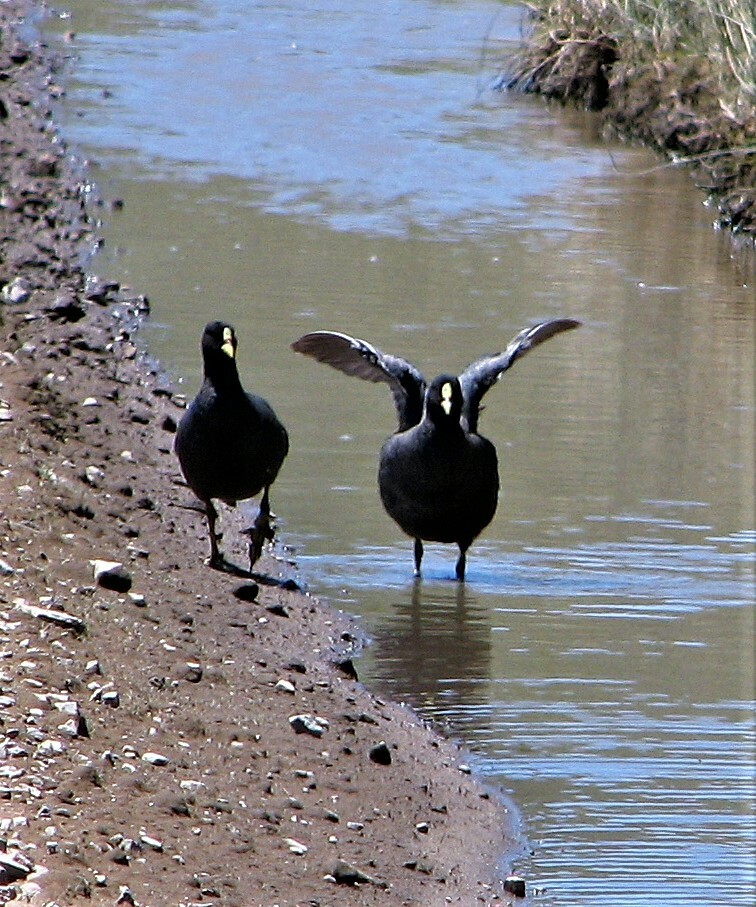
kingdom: Animalia
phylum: Chordata
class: Aves
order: Gruiformes
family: Rallidae
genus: Fulica
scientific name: Fulica armillata
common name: Red-gartered coot
